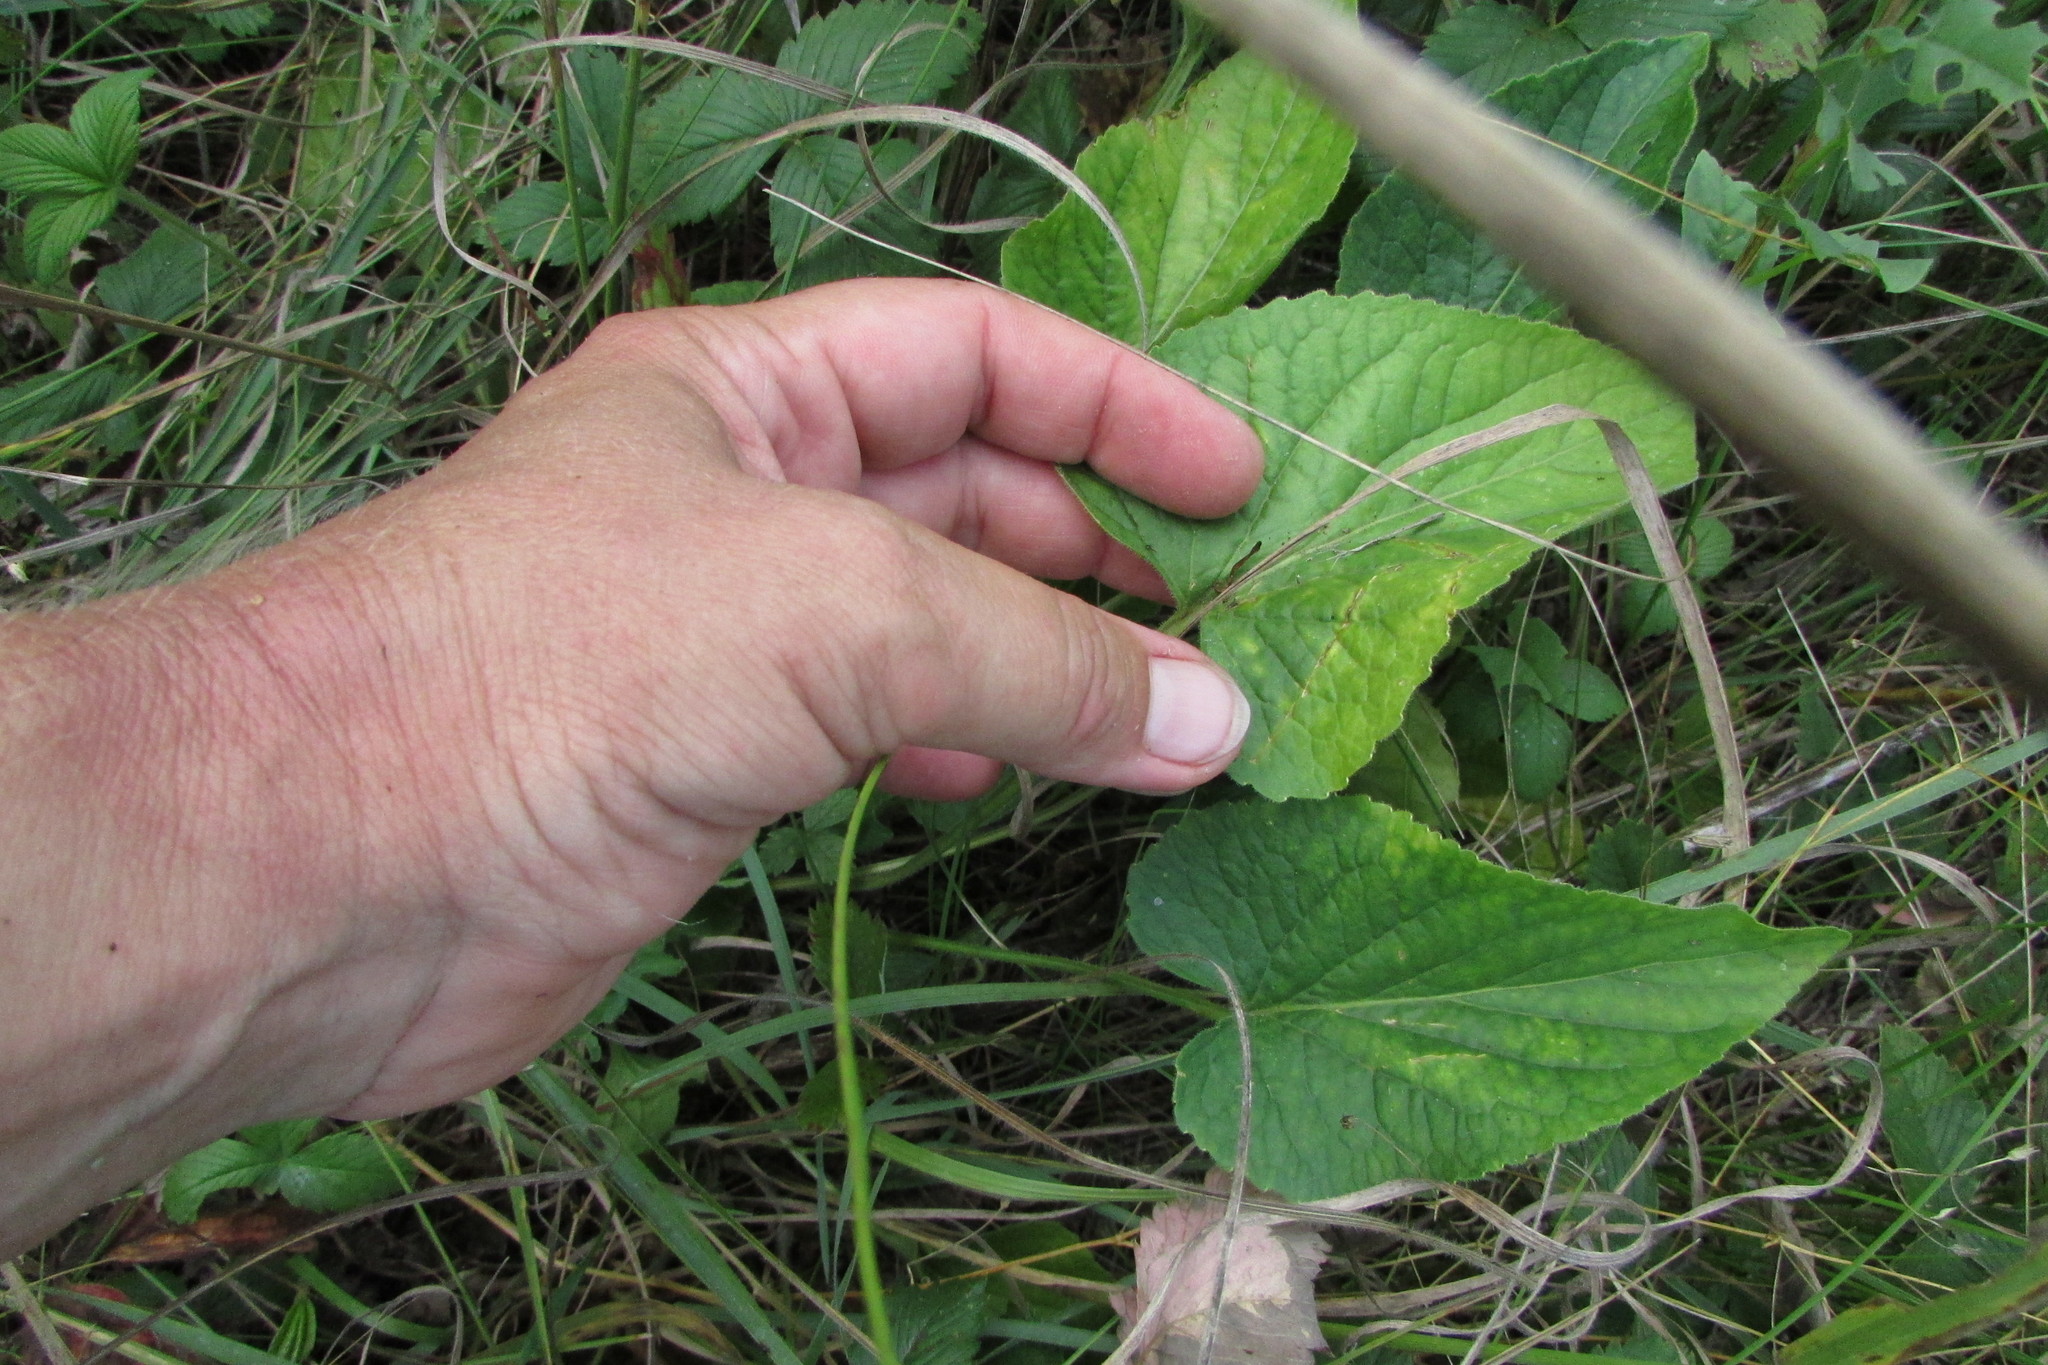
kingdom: Plantae
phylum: Tracheophyta
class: Magnoliopsida
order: Malpighiales
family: Violaceae
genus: Viola
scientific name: Viola hirta
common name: Hairy violet
